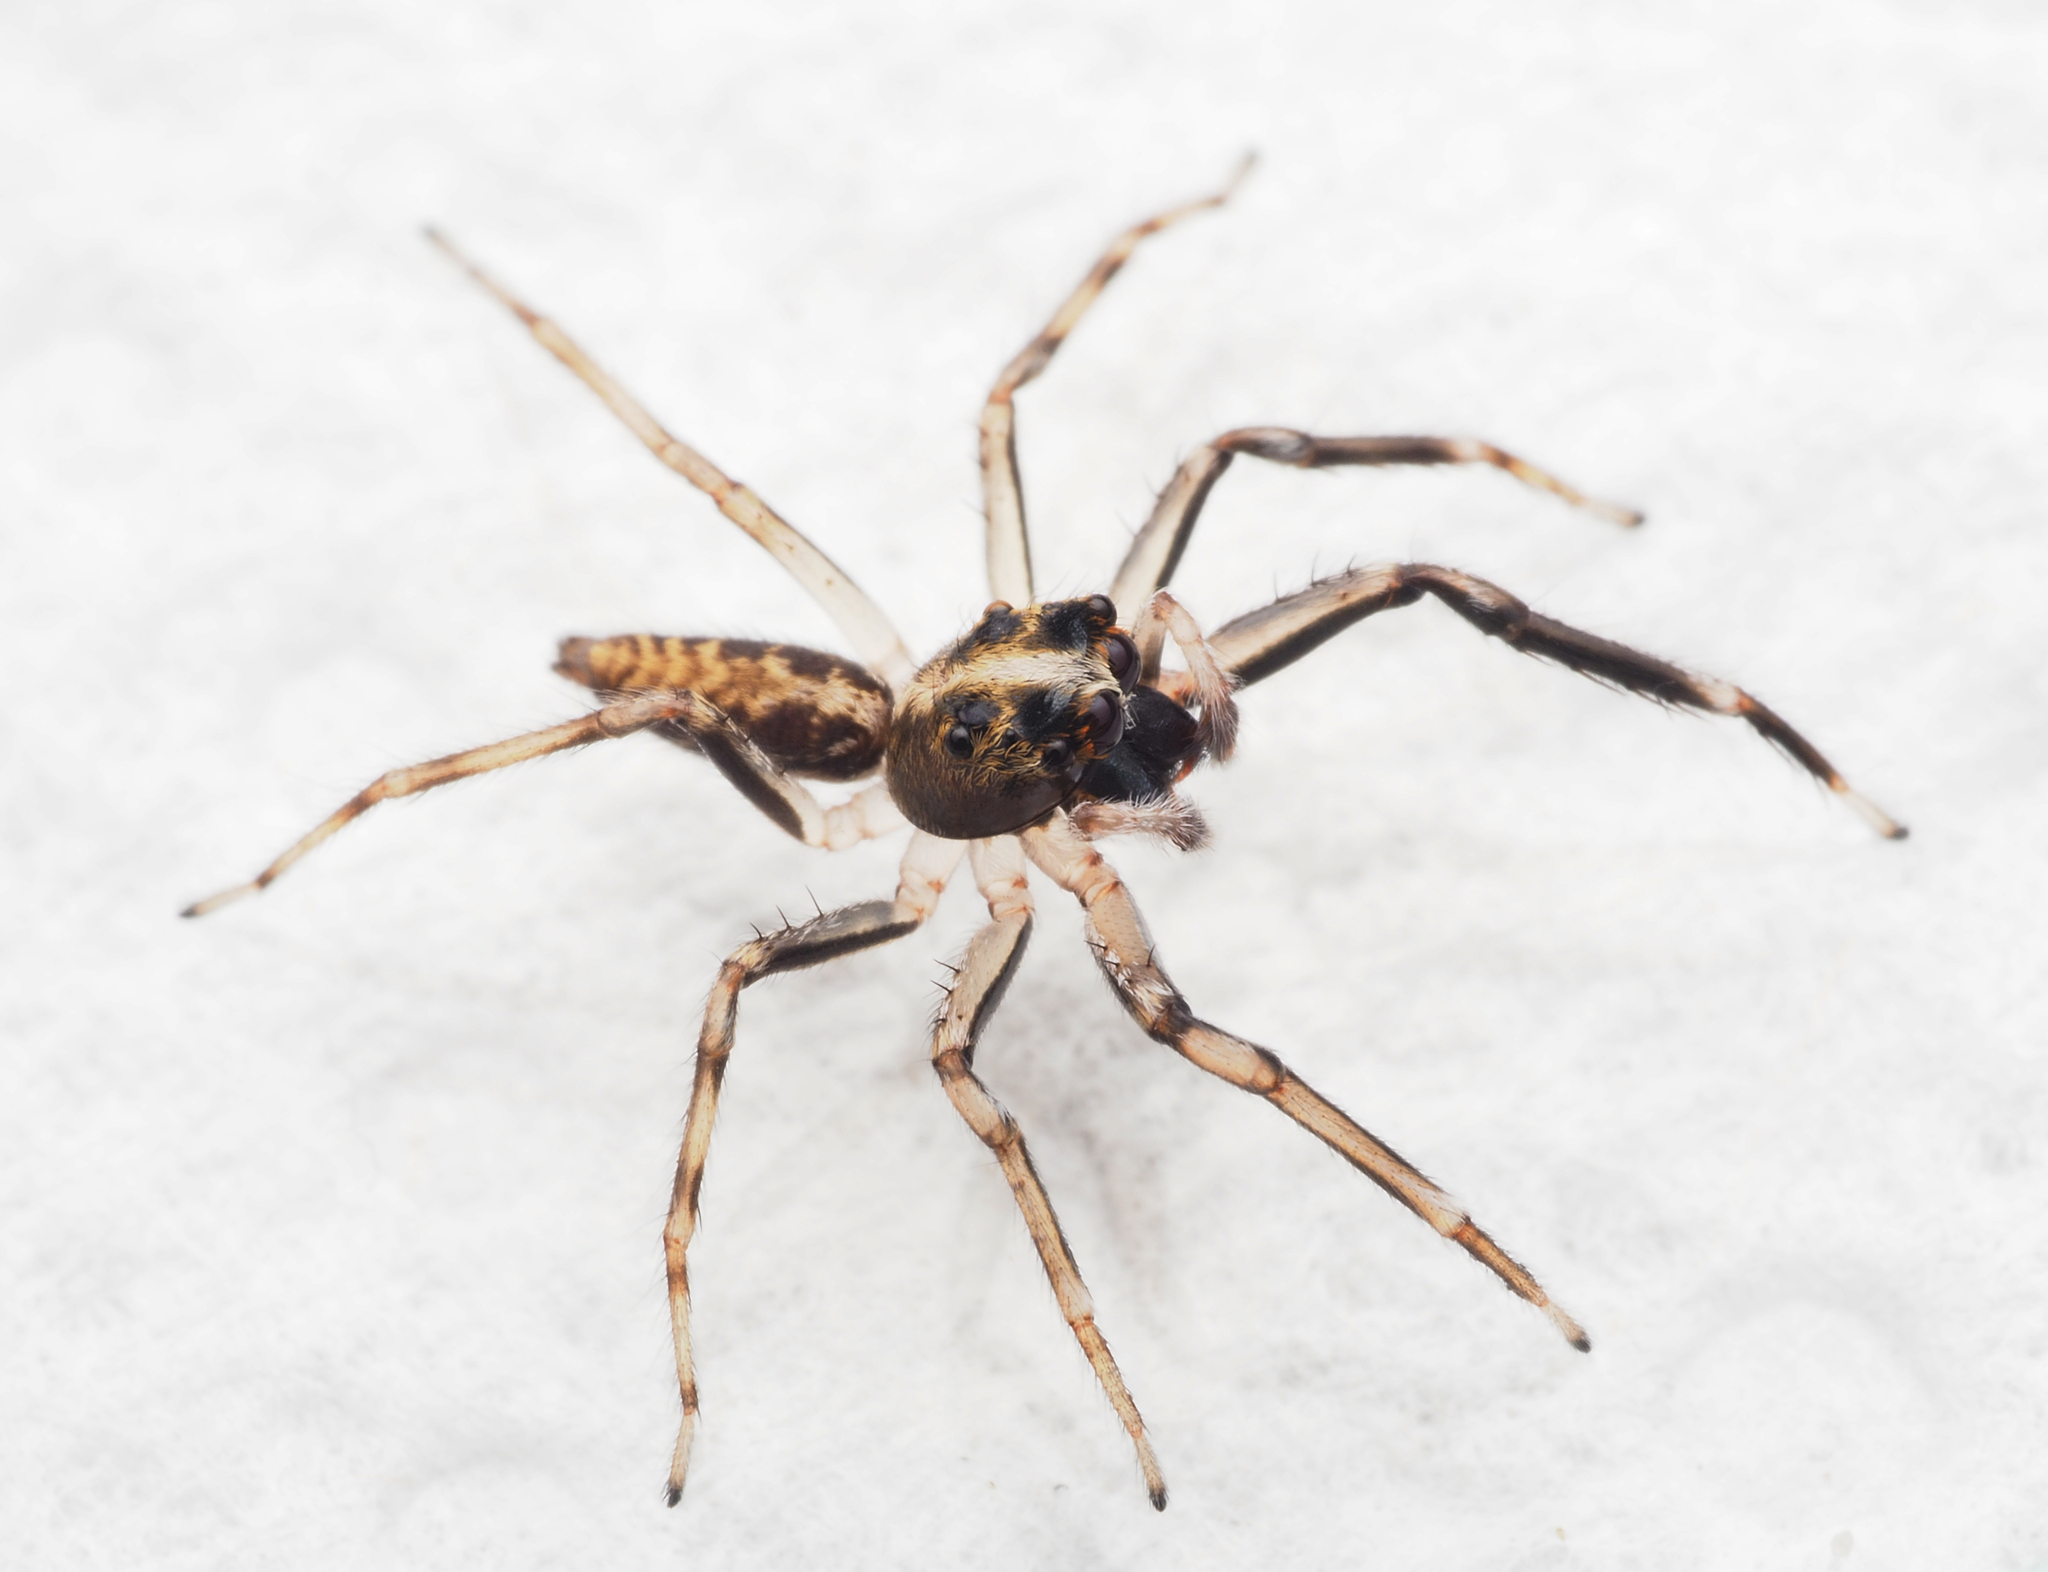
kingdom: Animalia
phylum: Arthropoda
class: Arachnida
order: Araneae
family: Salticidae
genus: Helpis
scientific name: Helpis kenilworthi
